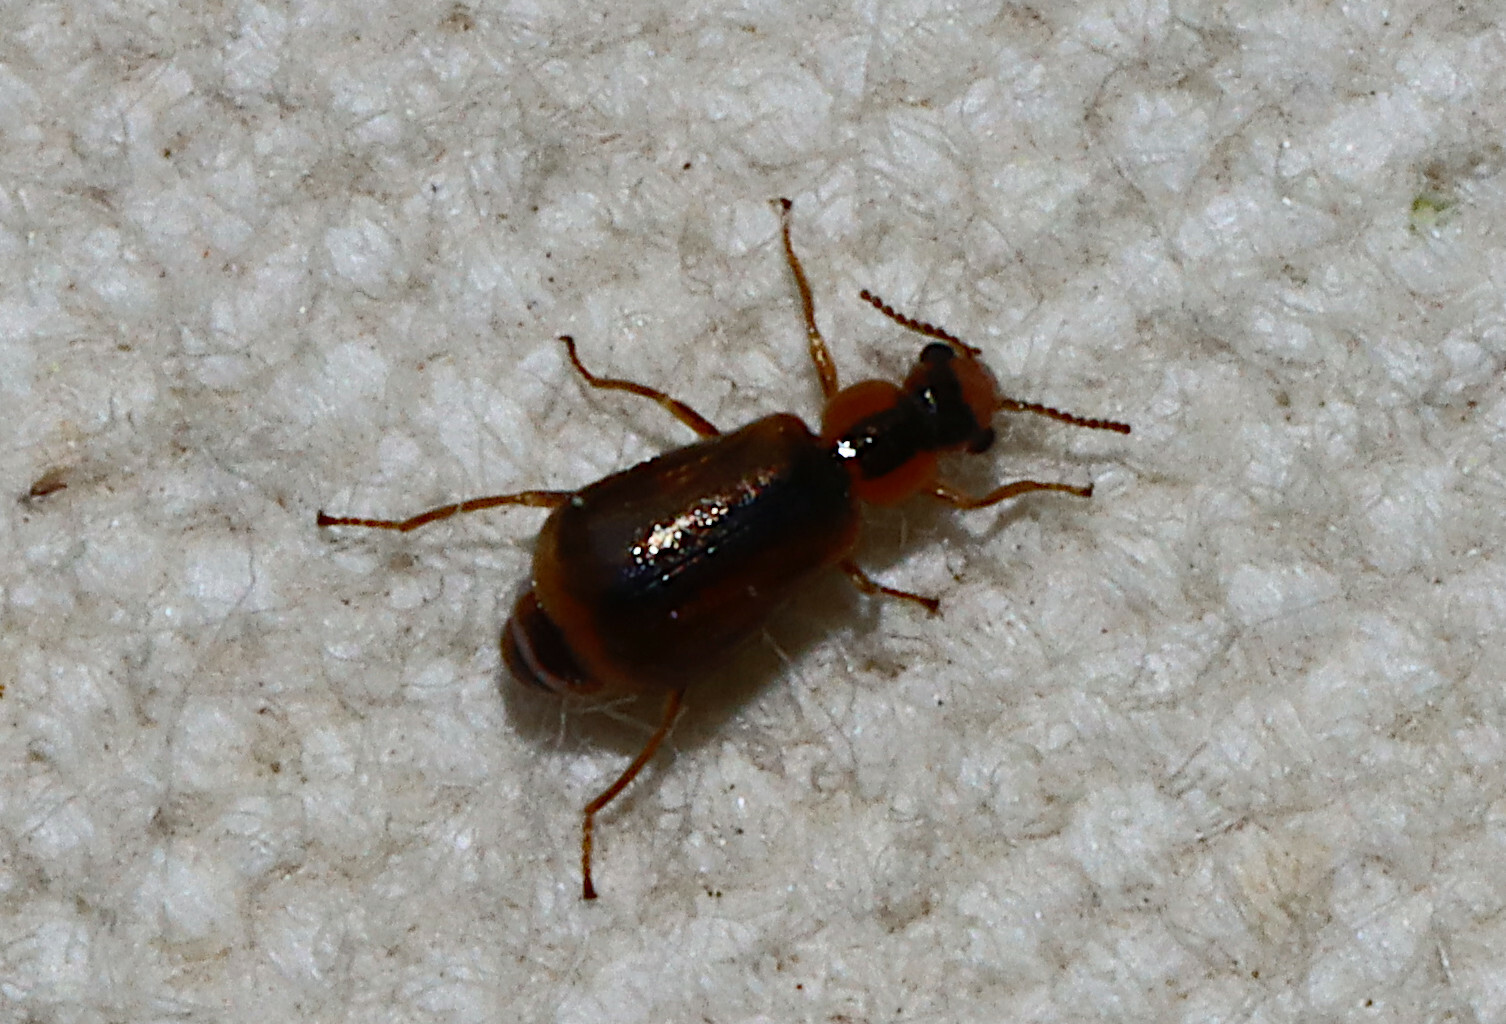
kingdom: Animalia
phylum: Arthropoda
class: Insecta
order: Coleoptera
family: Malachiidae
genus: Attalus
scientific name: Attalus
